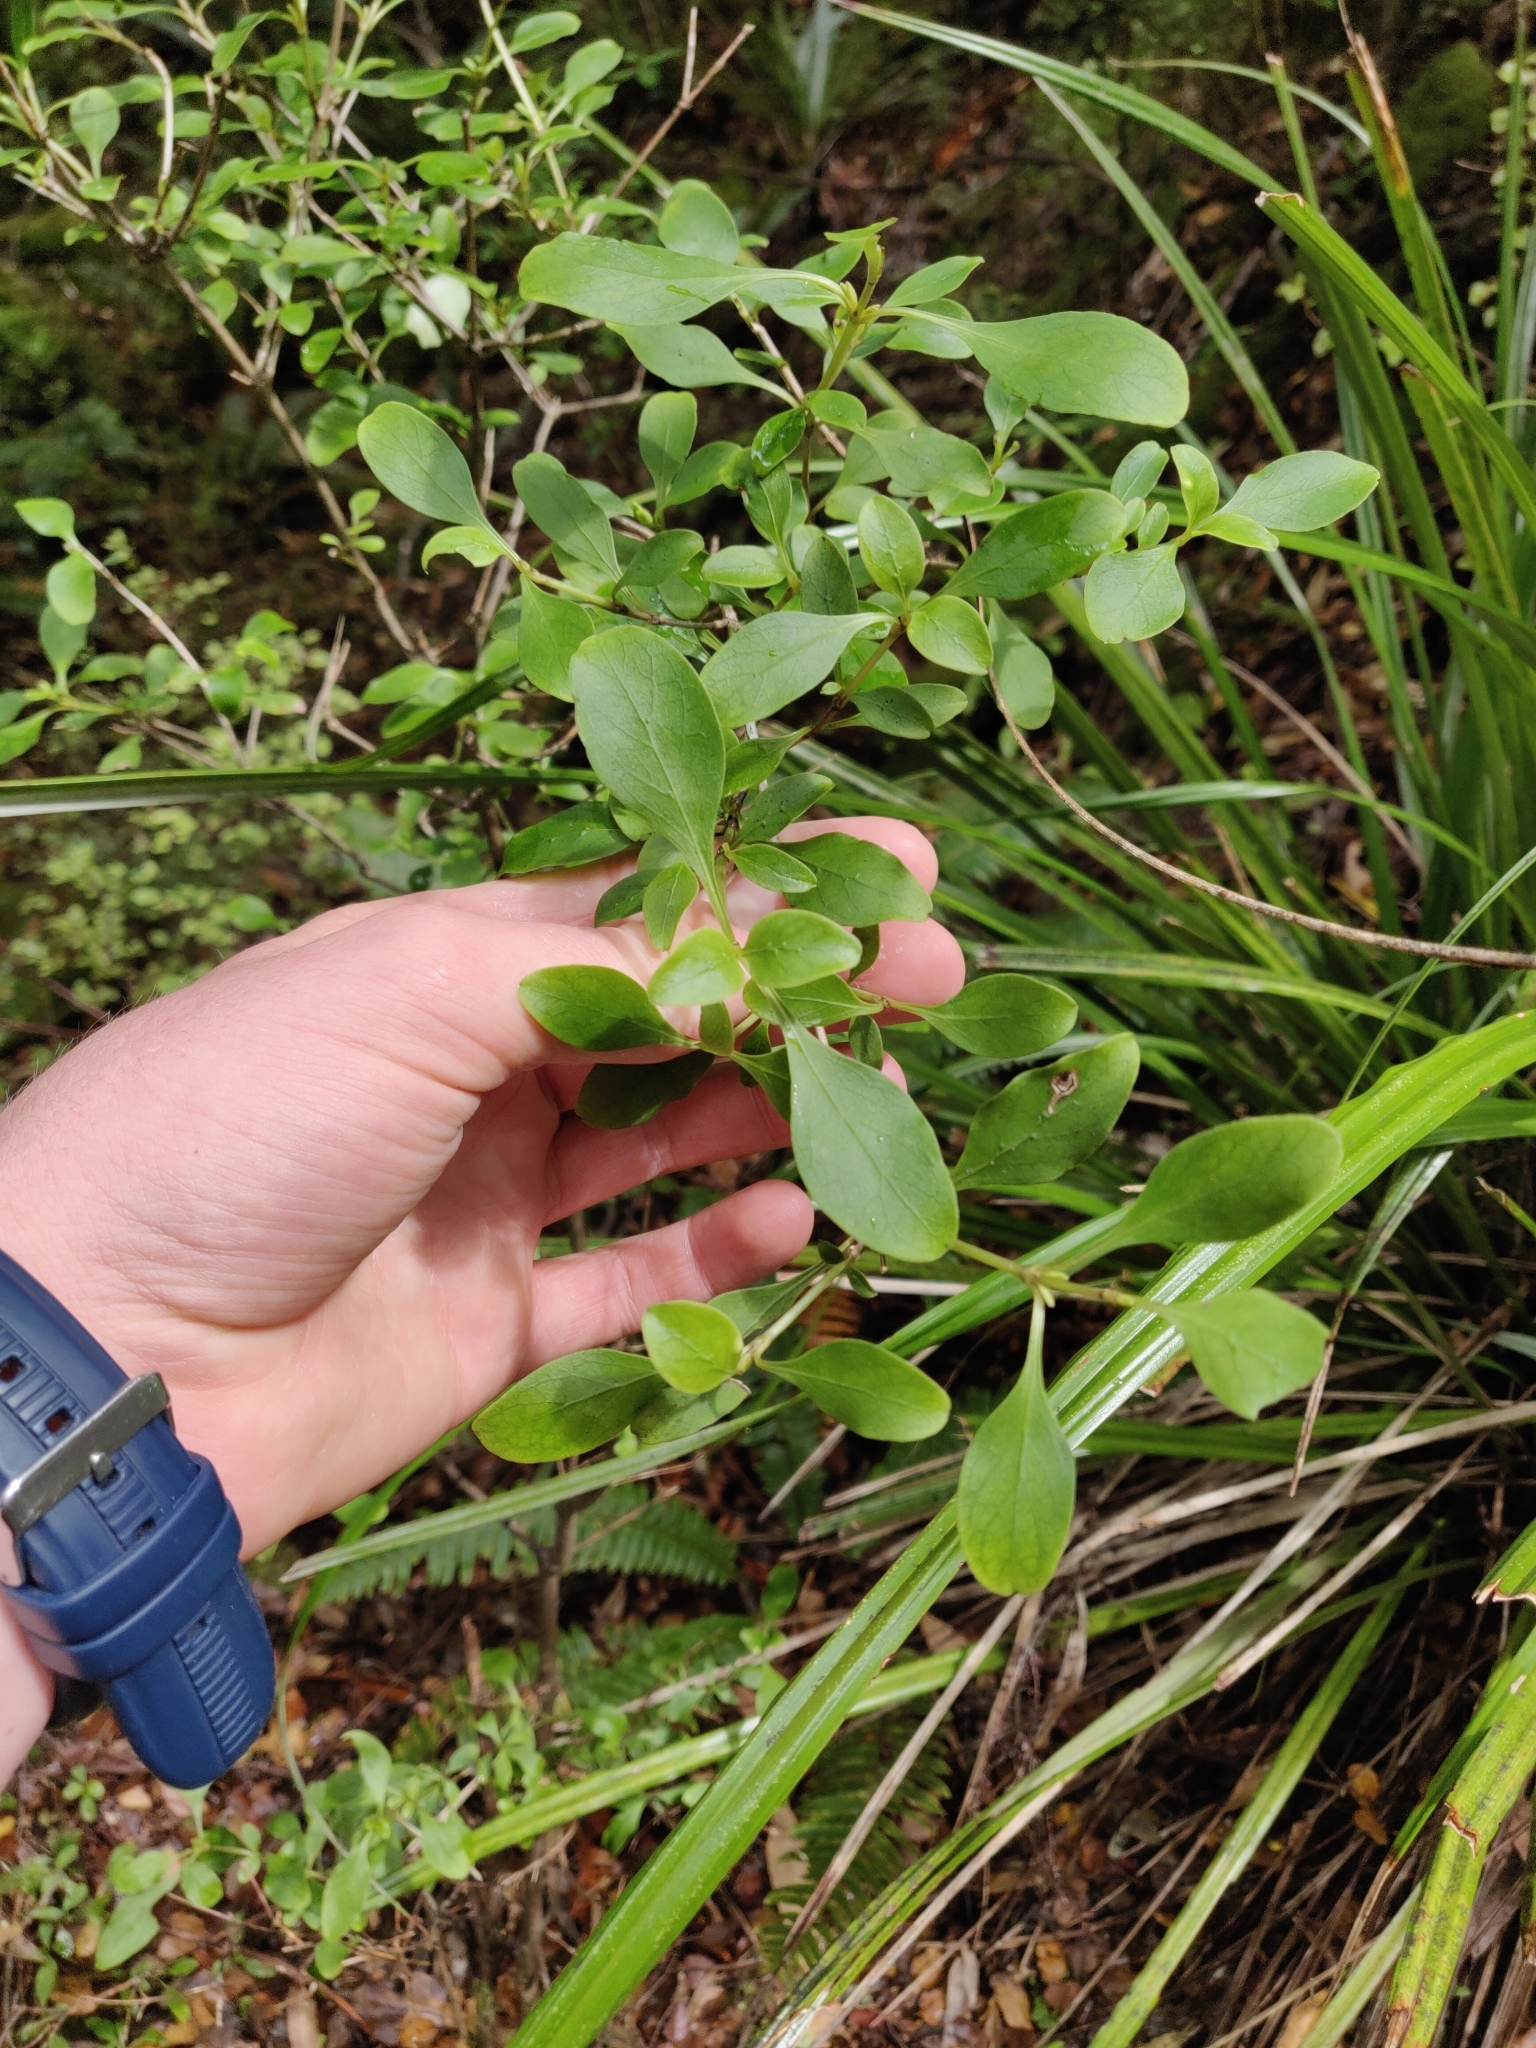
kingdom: Plantae
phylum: Tracheophyta
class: Magnoliopsida
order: Gentianales
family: Rubiaceae
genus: Coprosma
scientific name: Coprosma foetidissima
